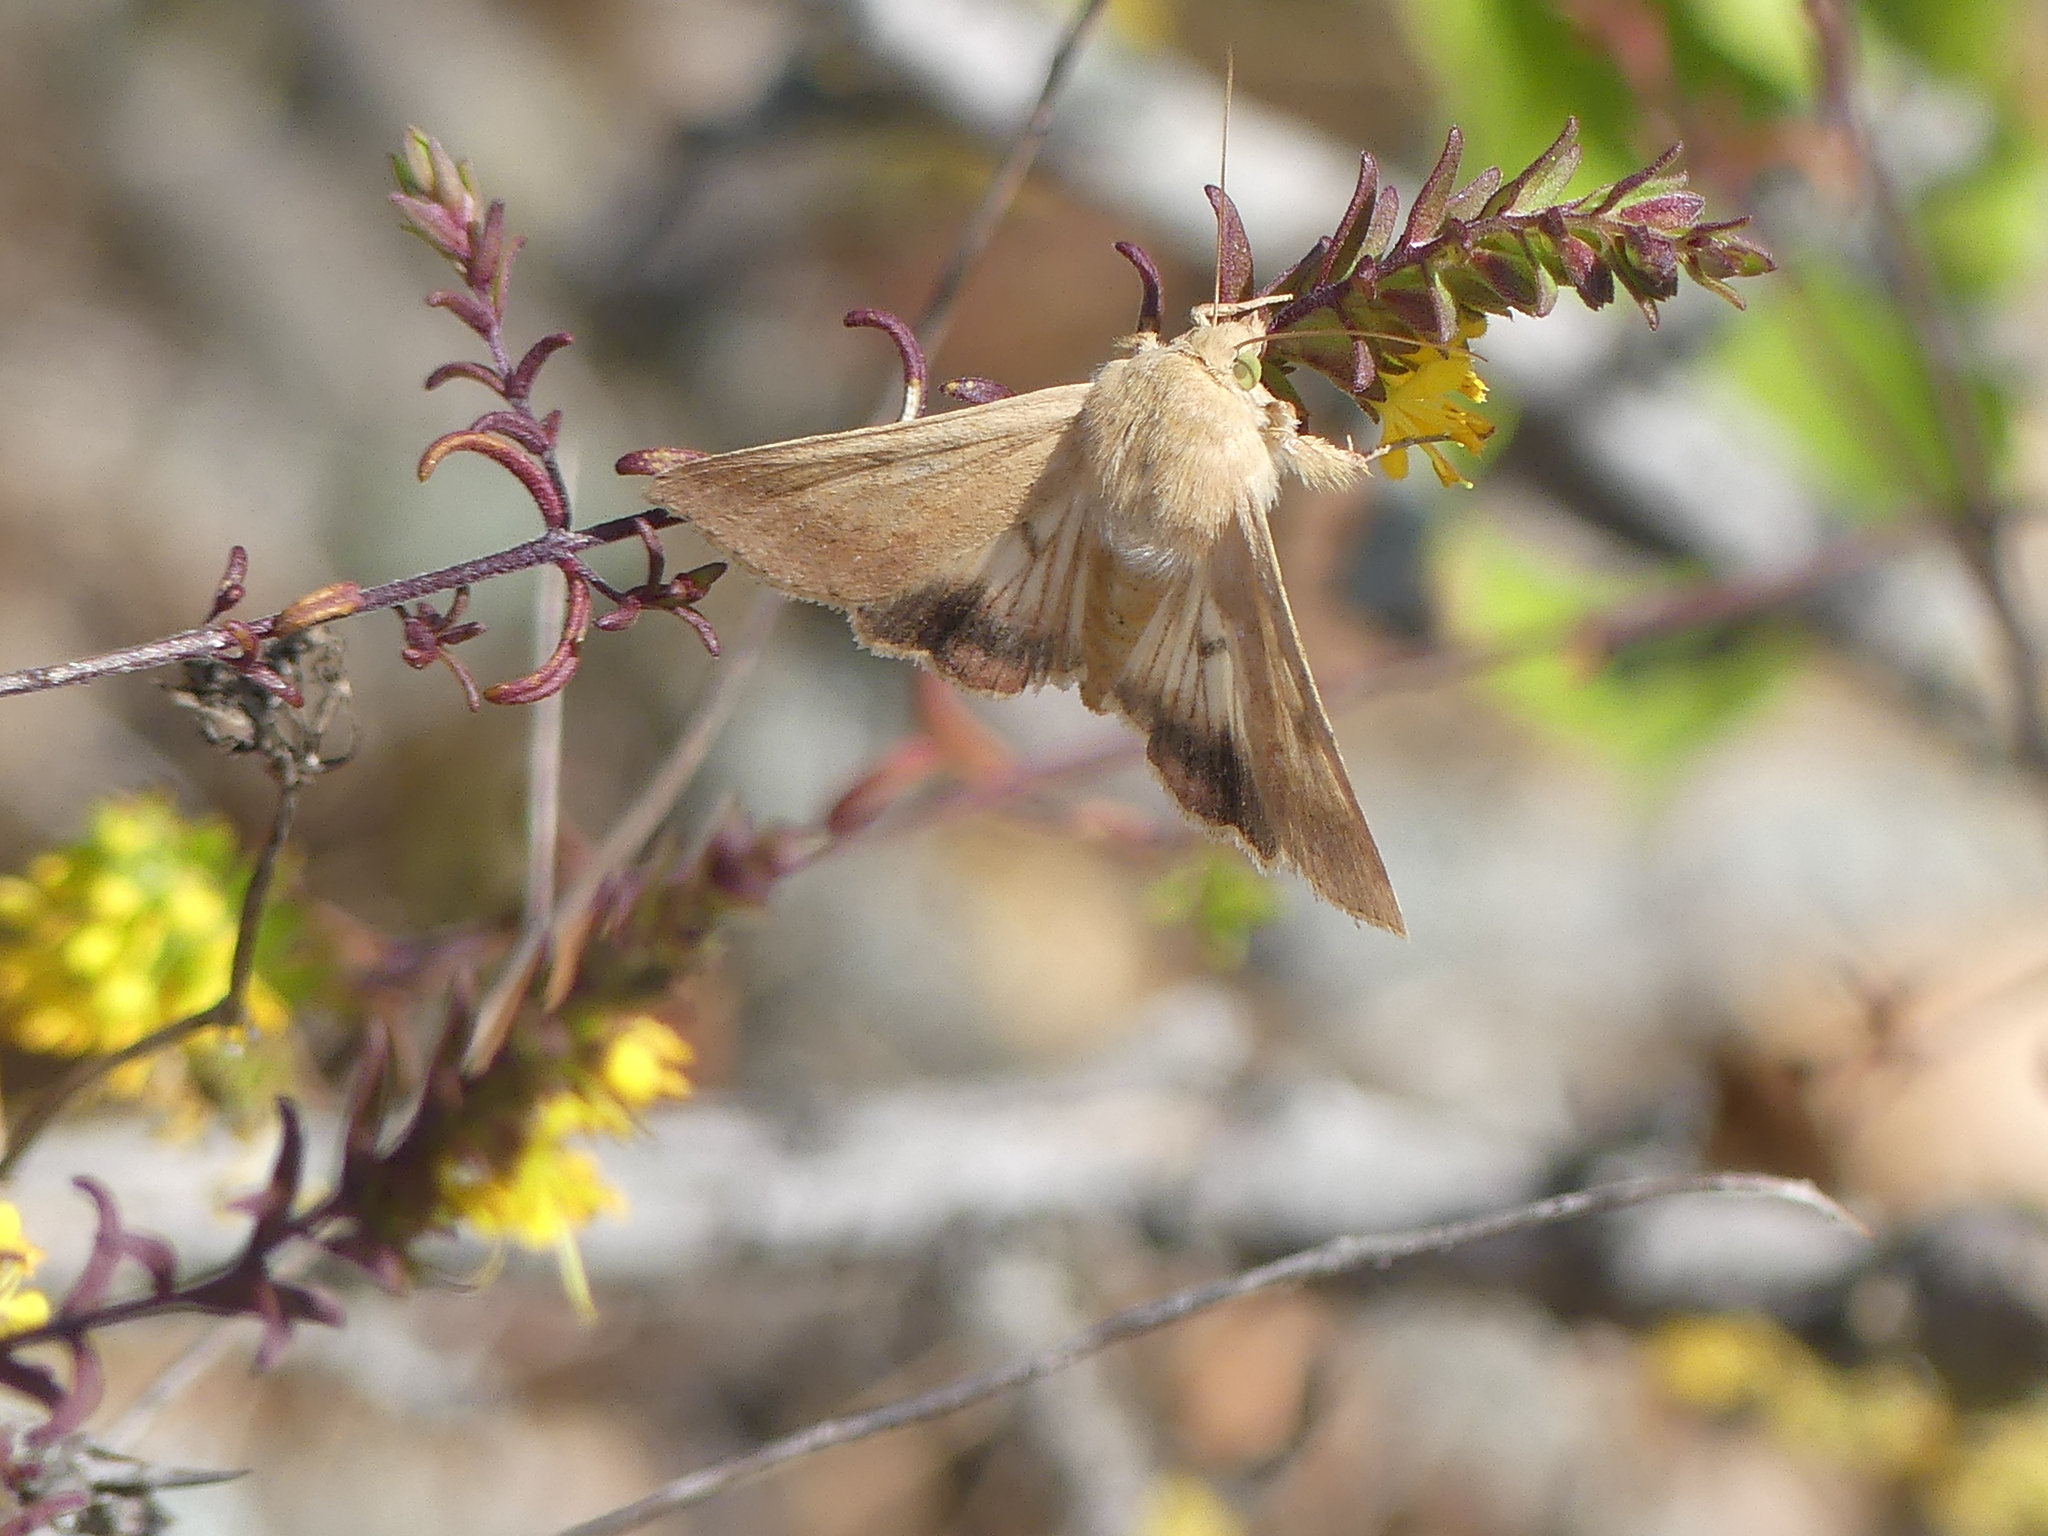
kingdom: Animalia
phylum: Arthropoda
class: Insecta
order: Lepidoptera
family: Noctuidae
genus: Helicoverpa
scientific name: Helicoverpa armigera
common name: Cotton bollworm
